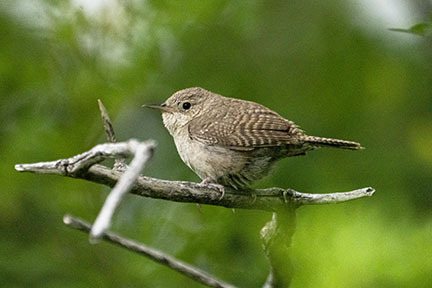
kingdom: Animalia
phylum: Chordata
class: Aves
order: Passeriformes
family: Troglodytidae
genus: Troglodytes
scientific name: Troglodytes aedon
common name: House wren
